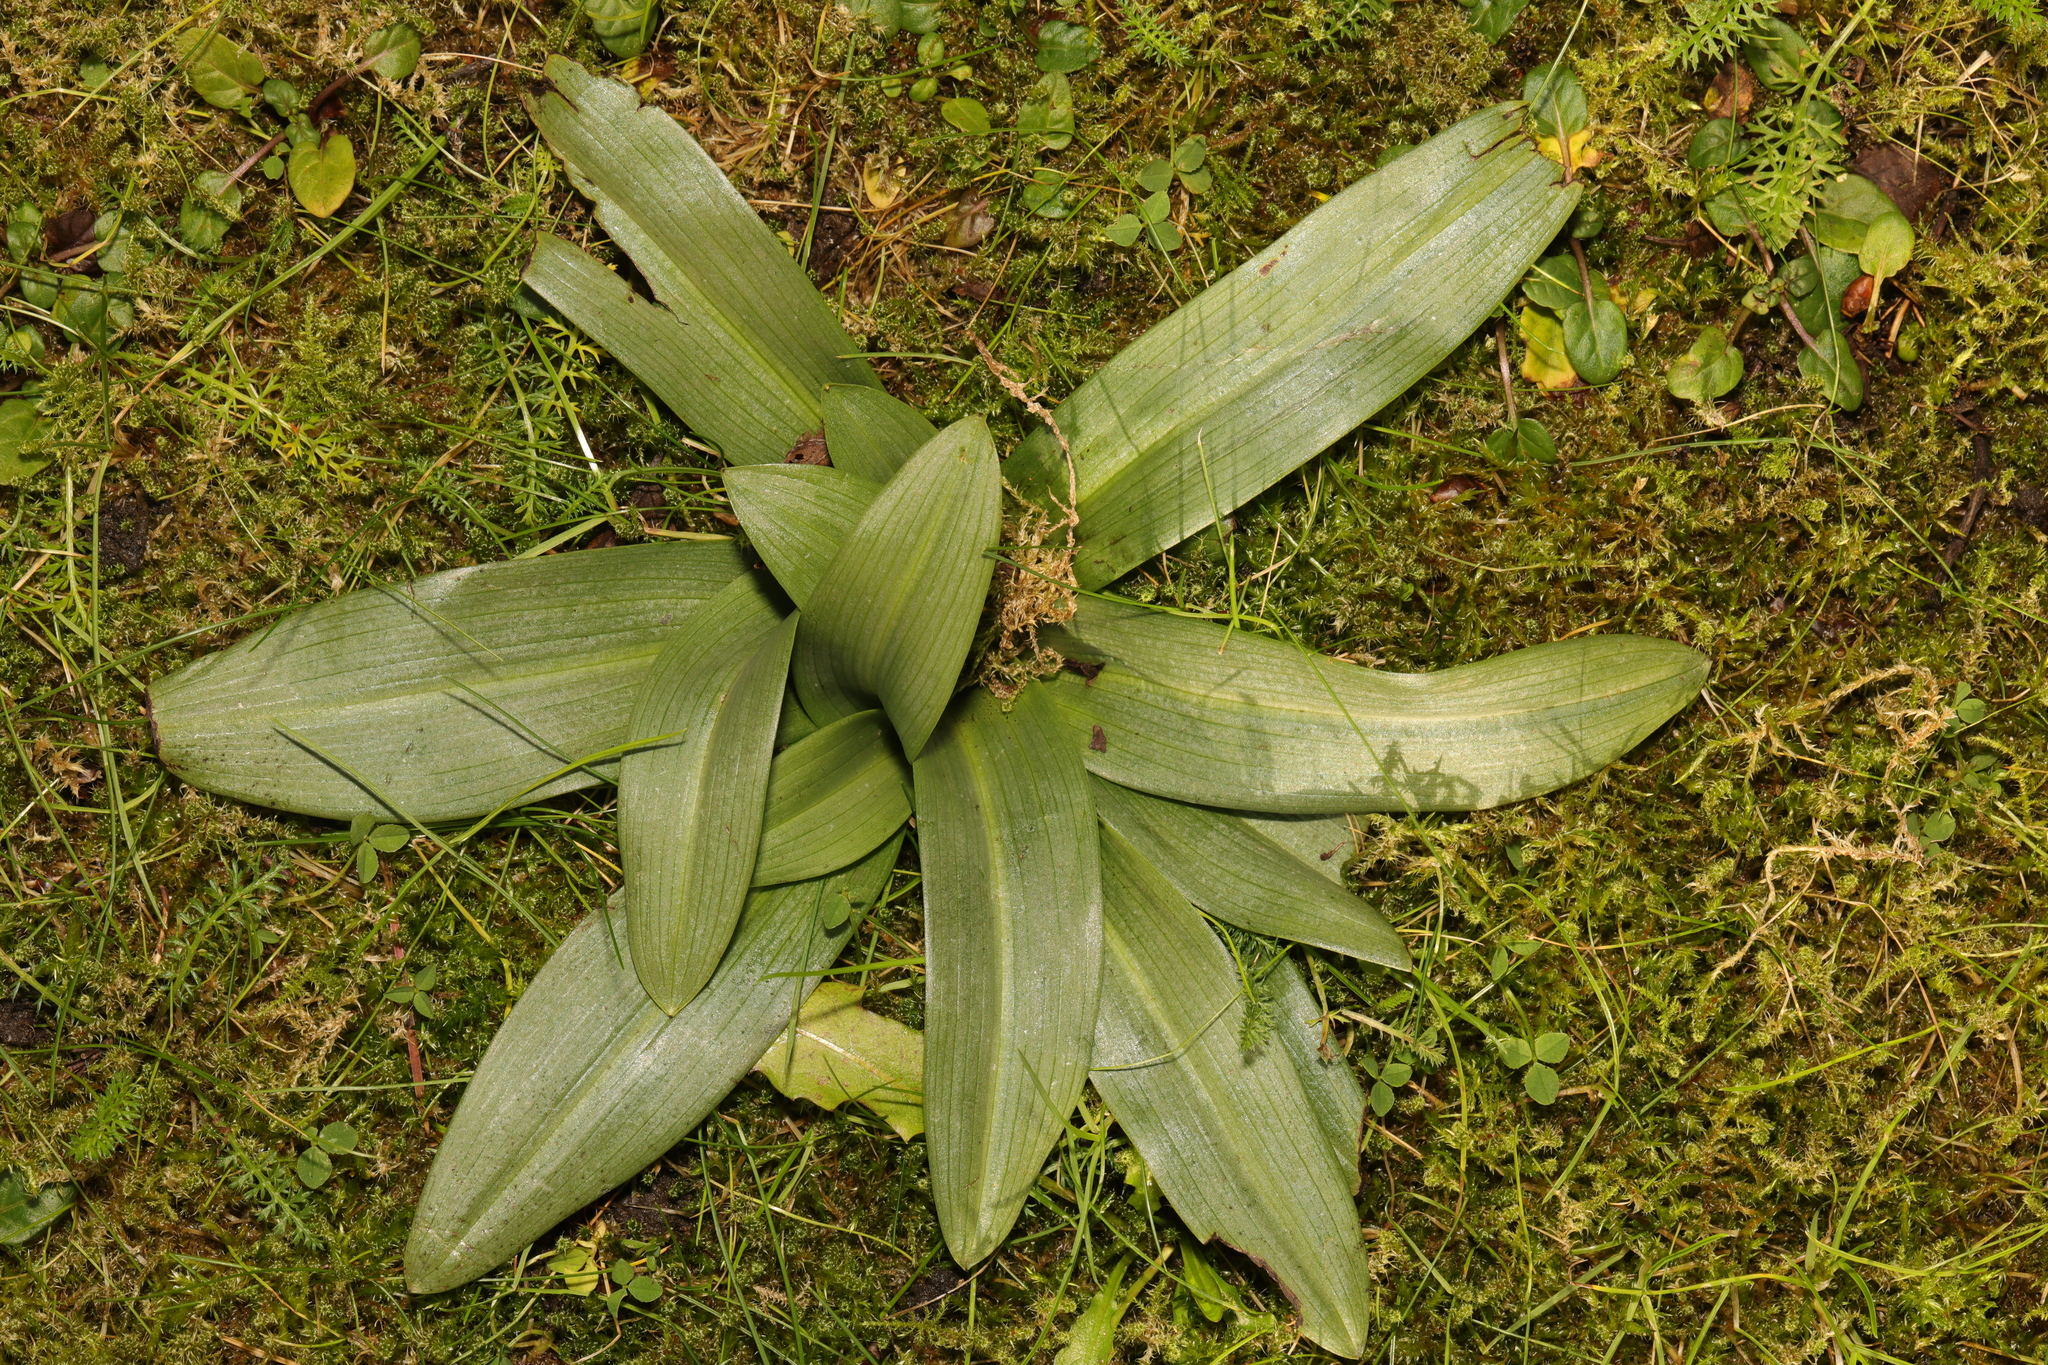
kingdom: Plantae
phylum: Tracheophyta
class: Liliopsida
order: Asparagales
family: Orchidaceae
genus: Ophrys
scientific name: Ophrys apifera
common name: Bee orchid
